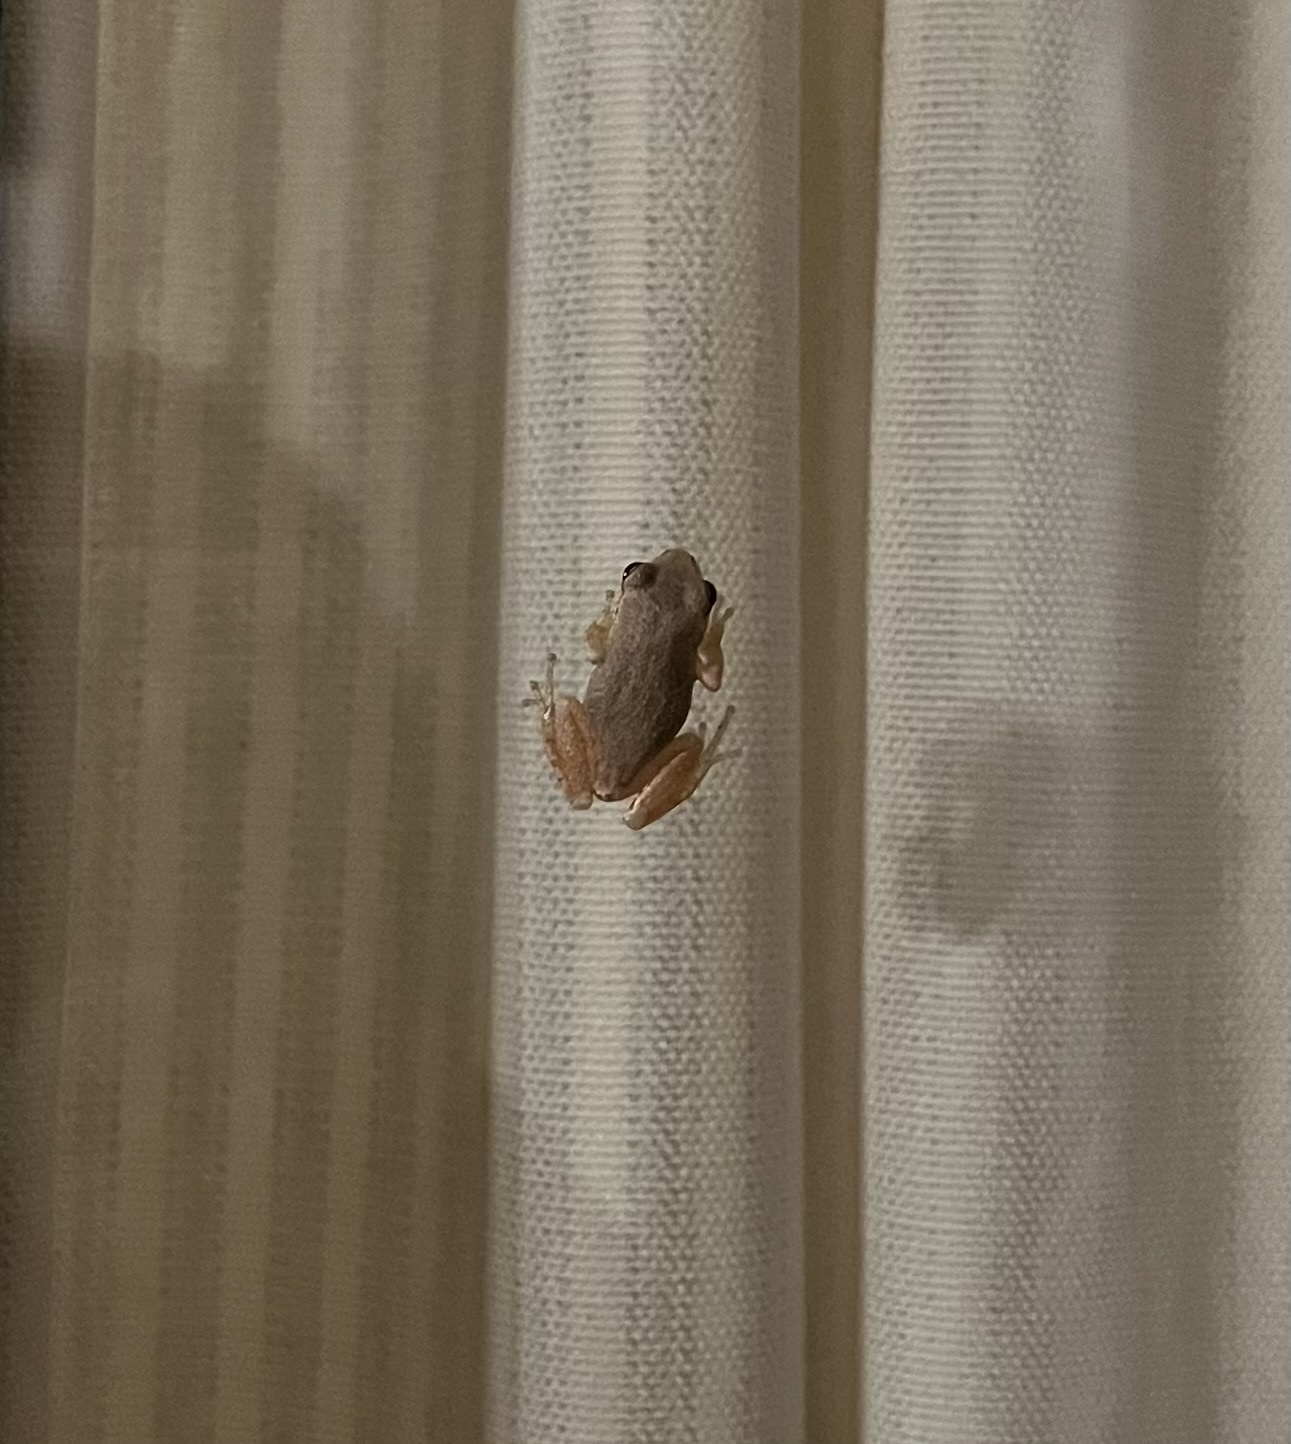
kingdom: Animalia
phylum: Chordata
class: Amphibia
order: Anura
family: Hylidae
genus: Pseudacris
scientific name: Pseudacris regilla
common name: Pacific chorus frog
